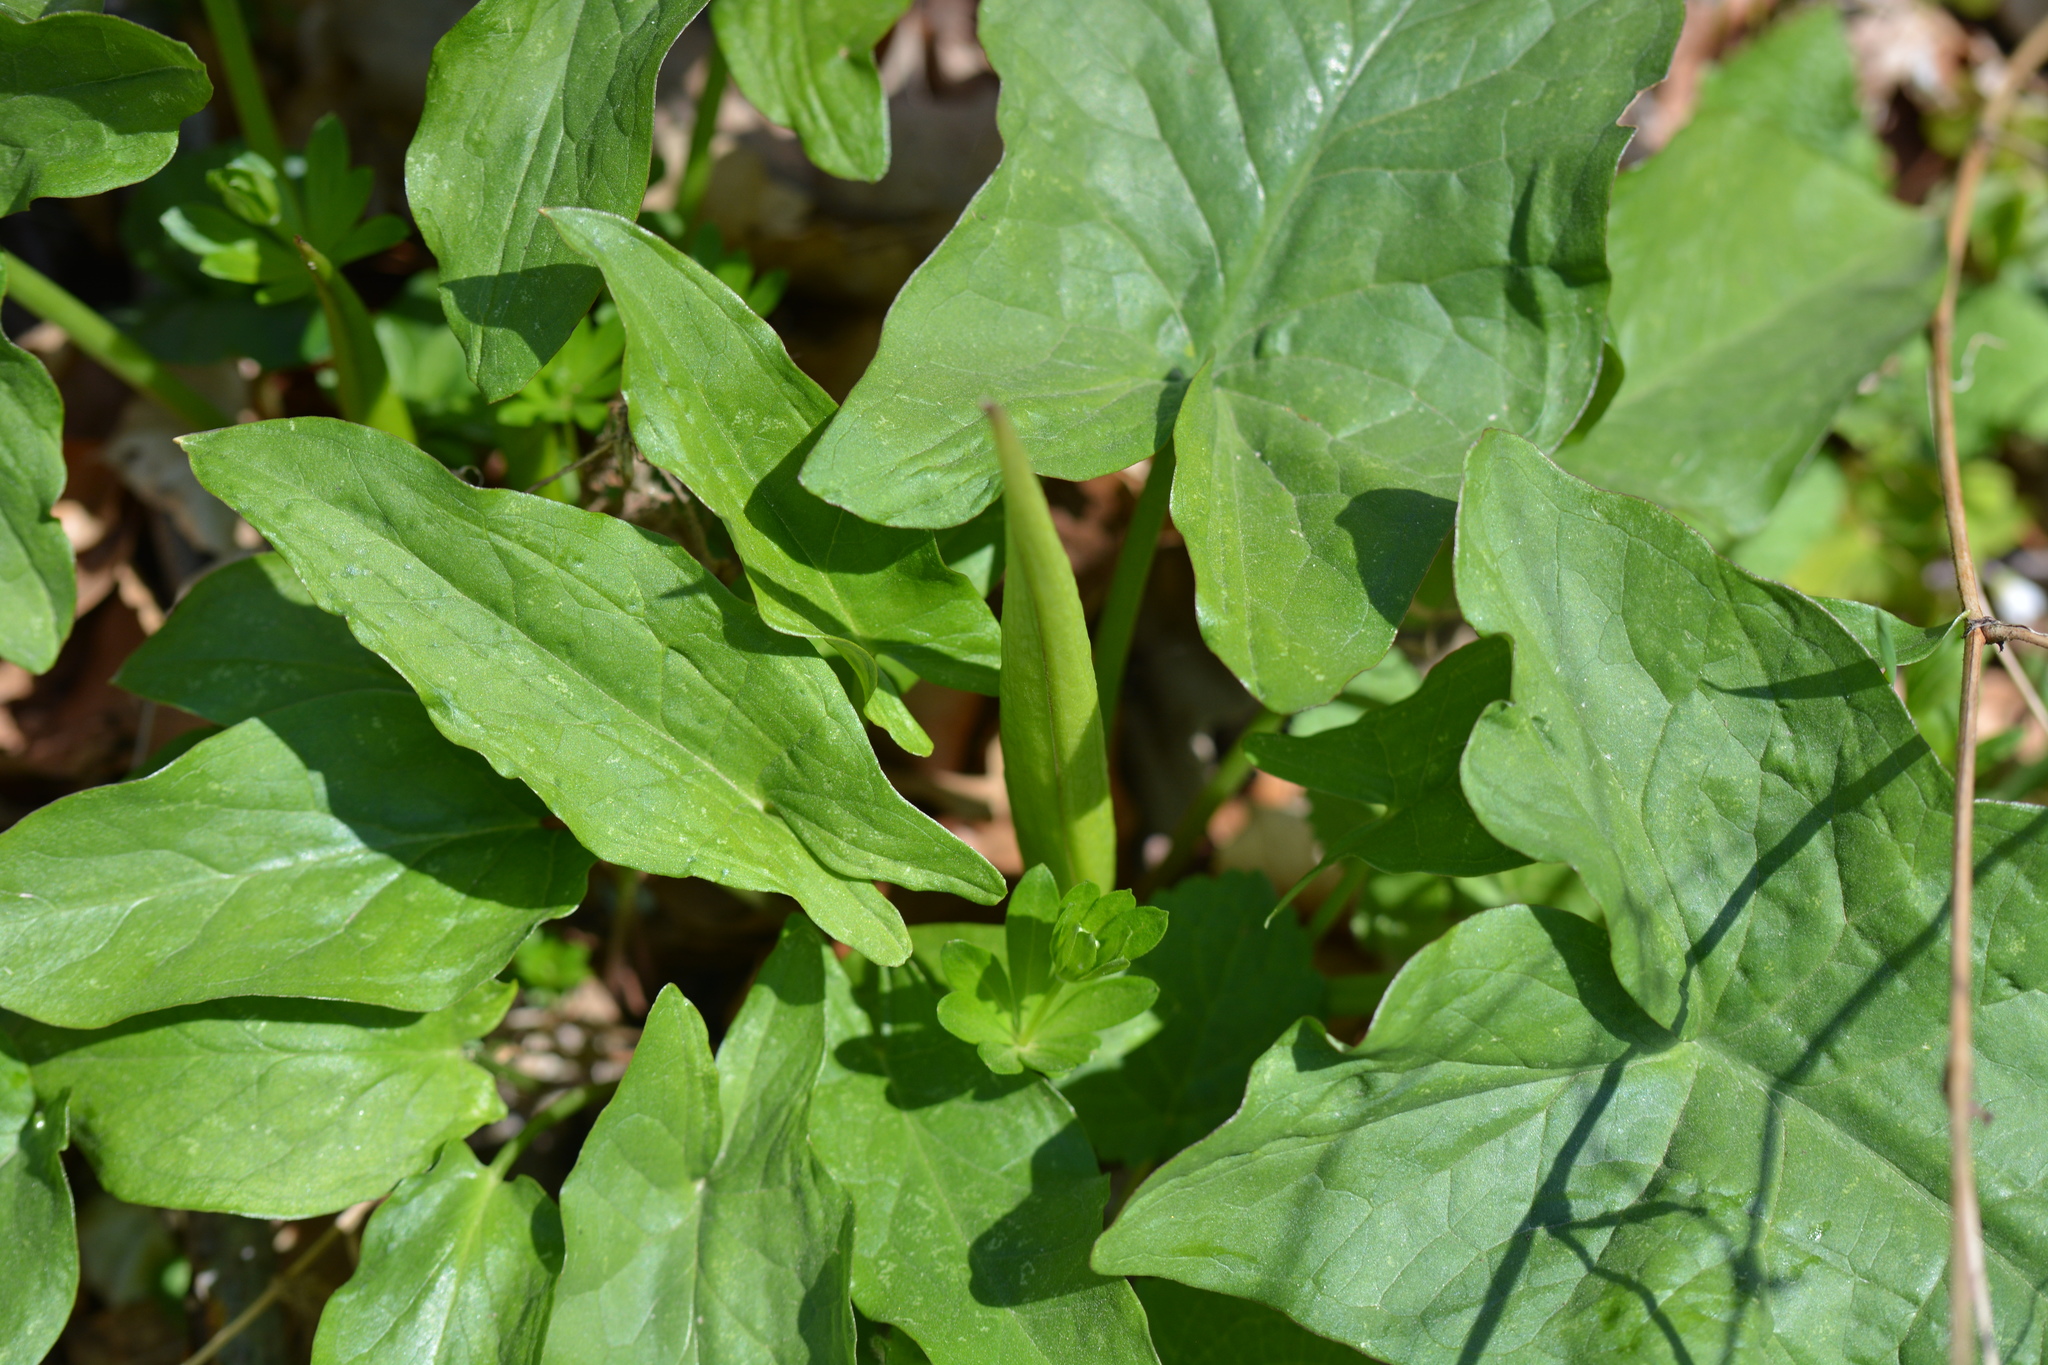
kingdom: Plantae
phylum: Tracheophyta
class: Liliopsida
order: Alismatales
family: Araceae
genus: Arum
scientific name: Arum maculatum
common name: Lords-and-ladies
